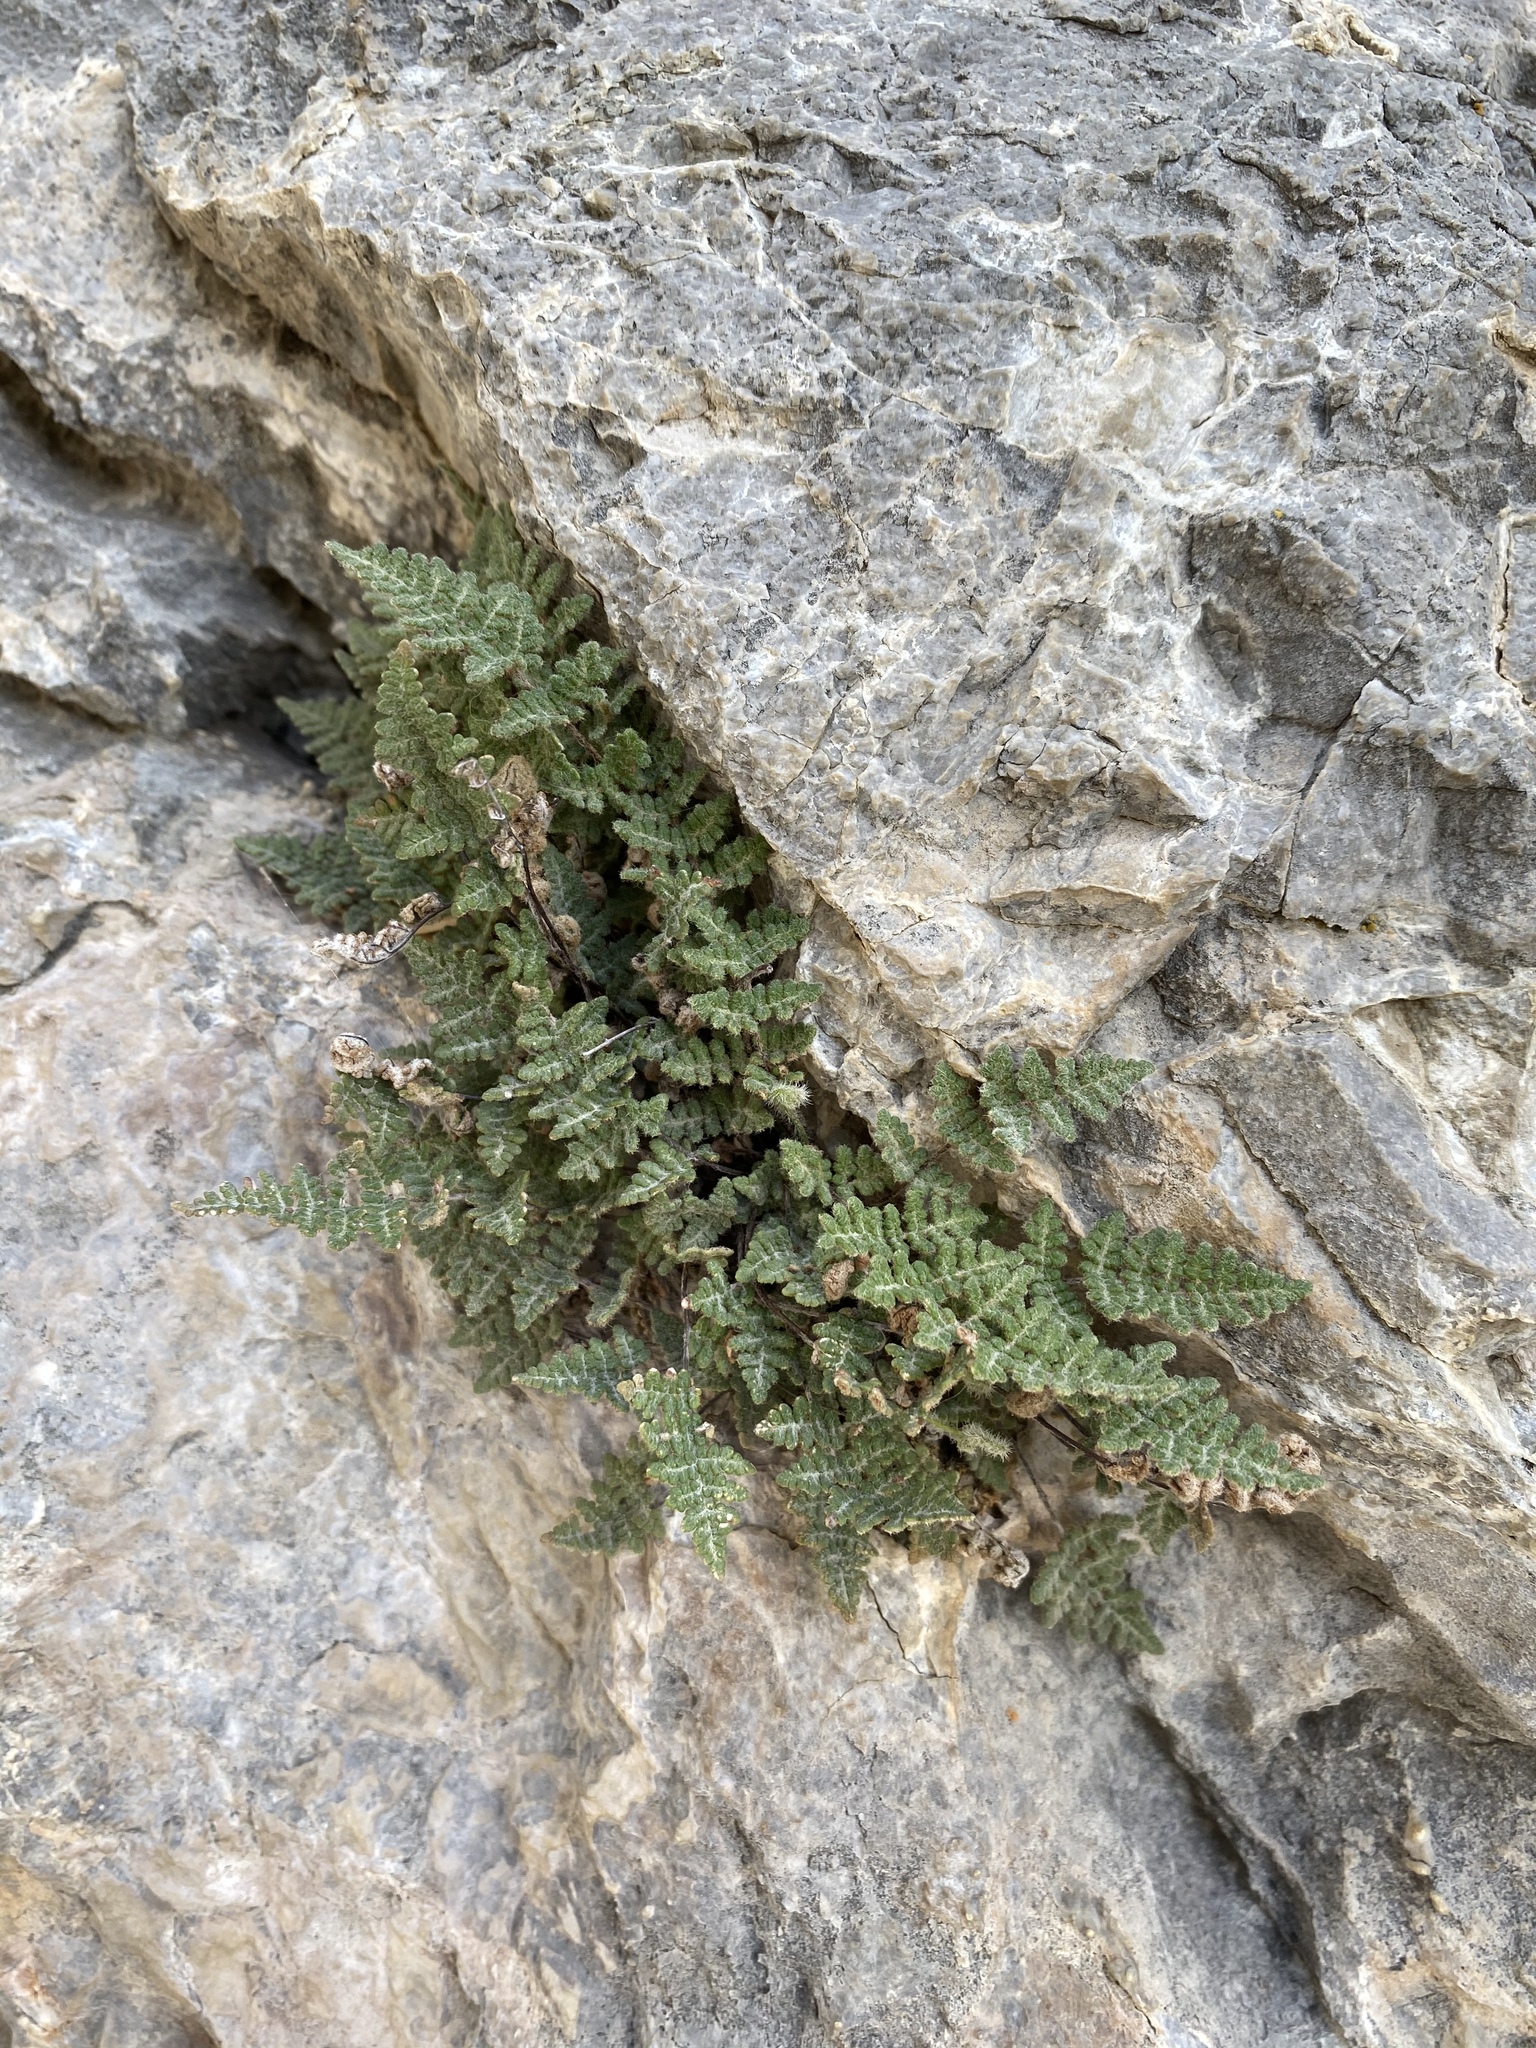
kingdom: Plantae
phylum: Tracheophyta
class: Polypodiopsida
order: Polypodiales
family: Pteridaceae
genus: Myriopteris
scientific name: Myriopteris gracilis
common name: Fee's lip fern
